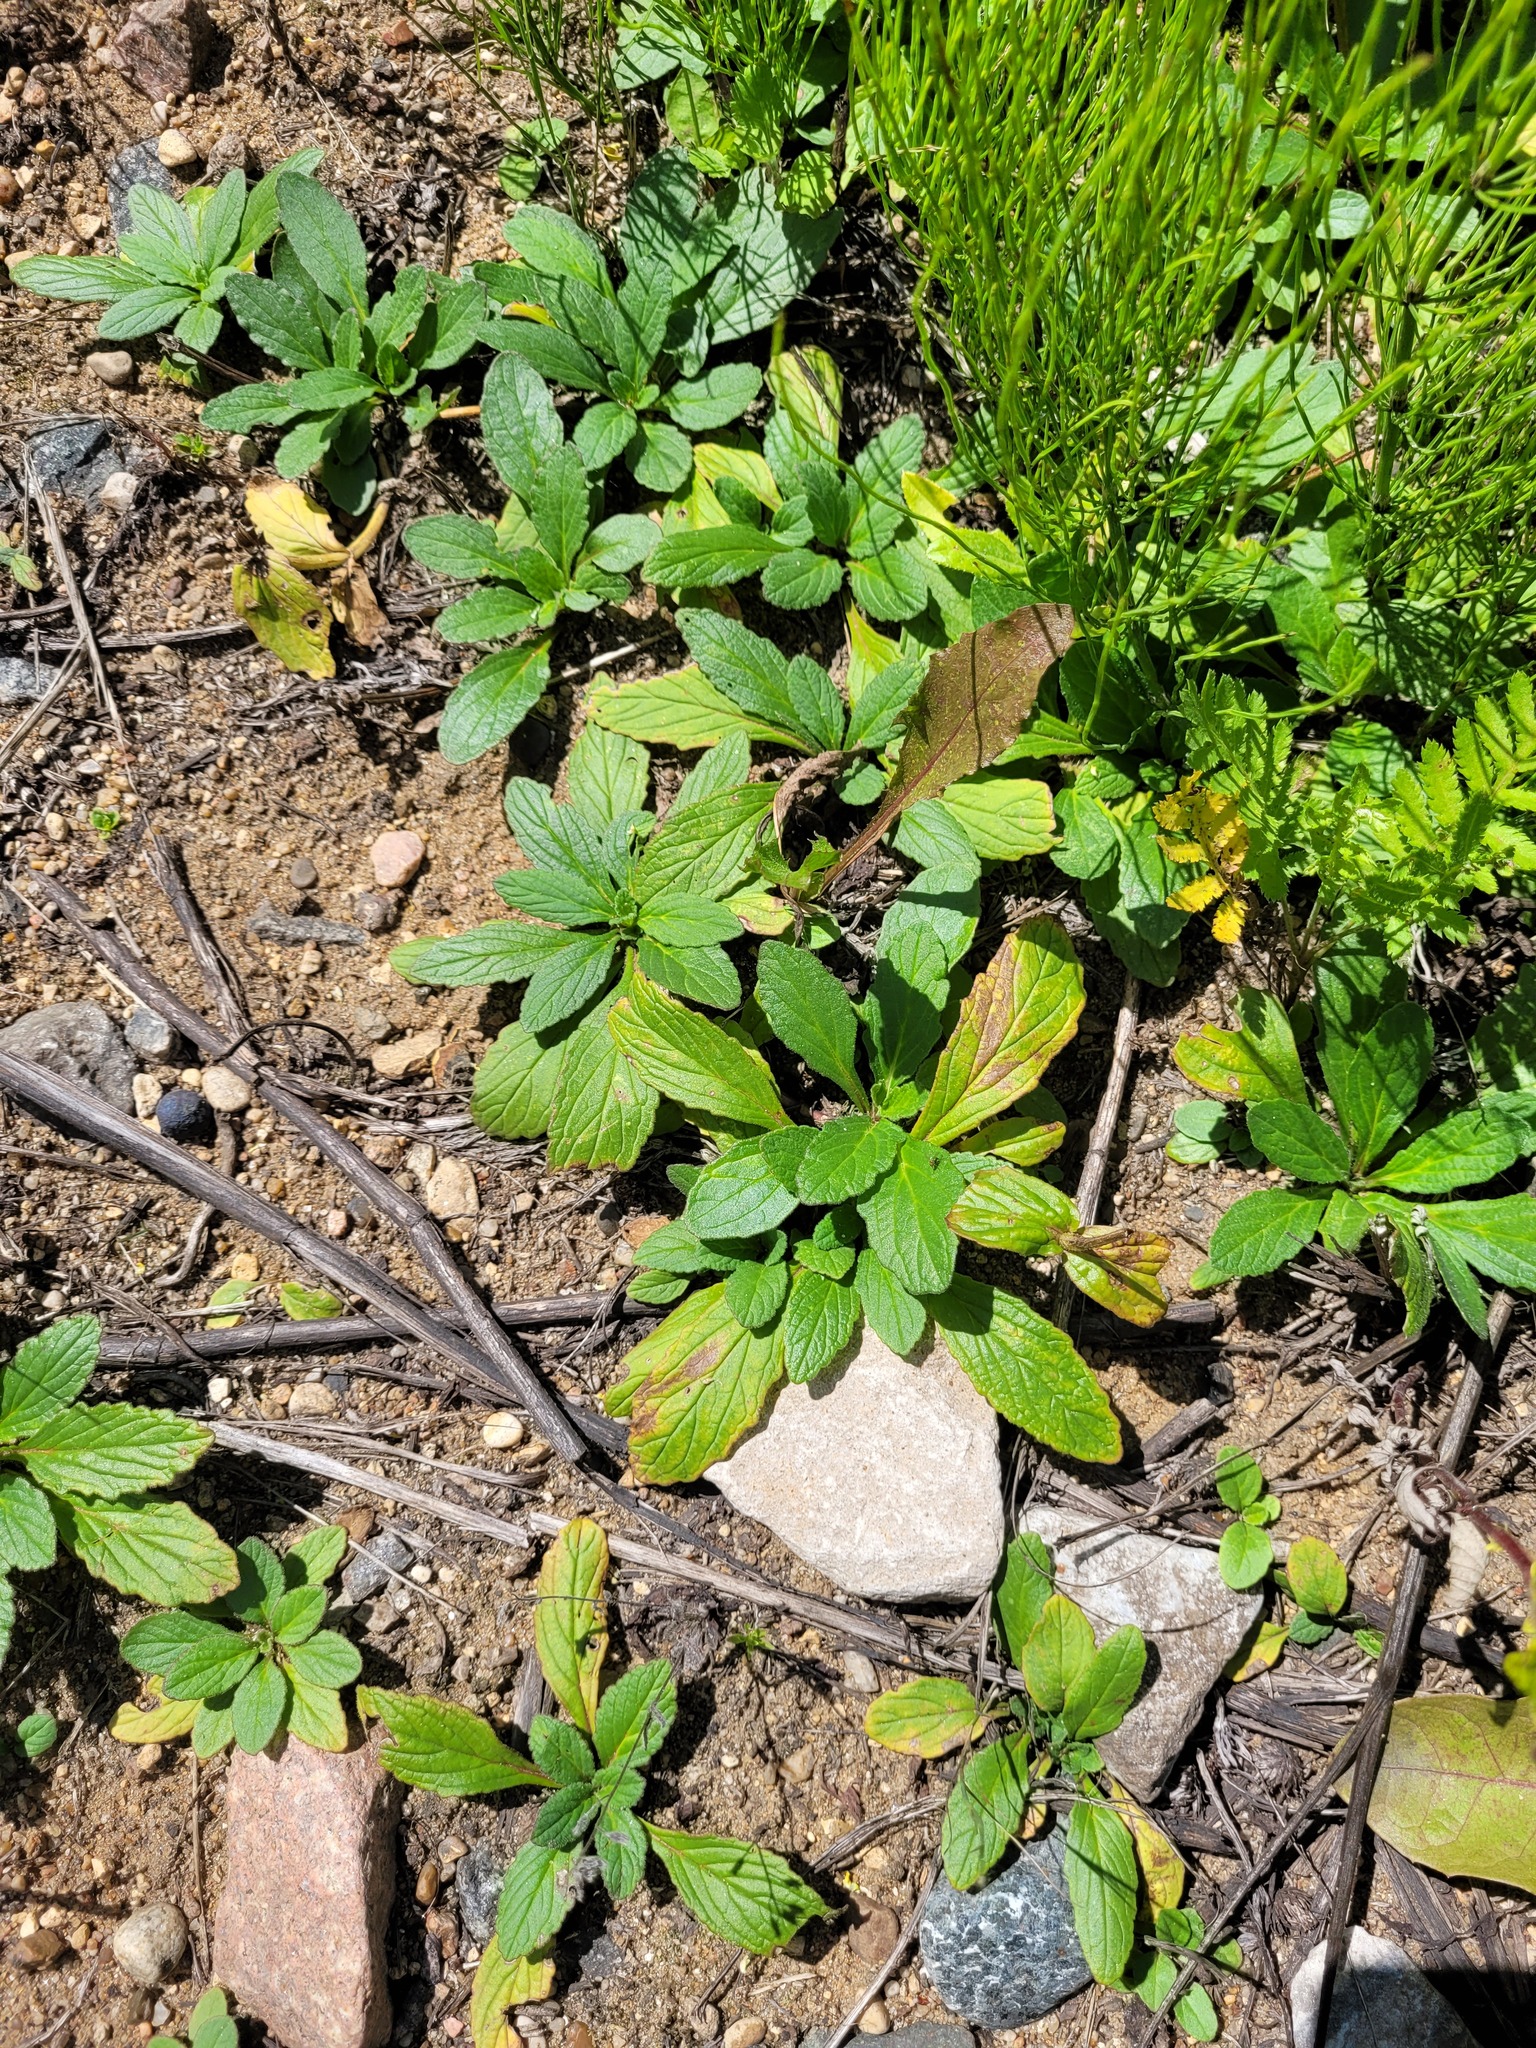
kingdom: Plantae
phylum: Tracheophyta
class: Magnoliopsida
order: Lamiales
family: Lamiaceae
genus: Ajuga
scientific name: Ajuga genevensis
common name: Blue bugle
